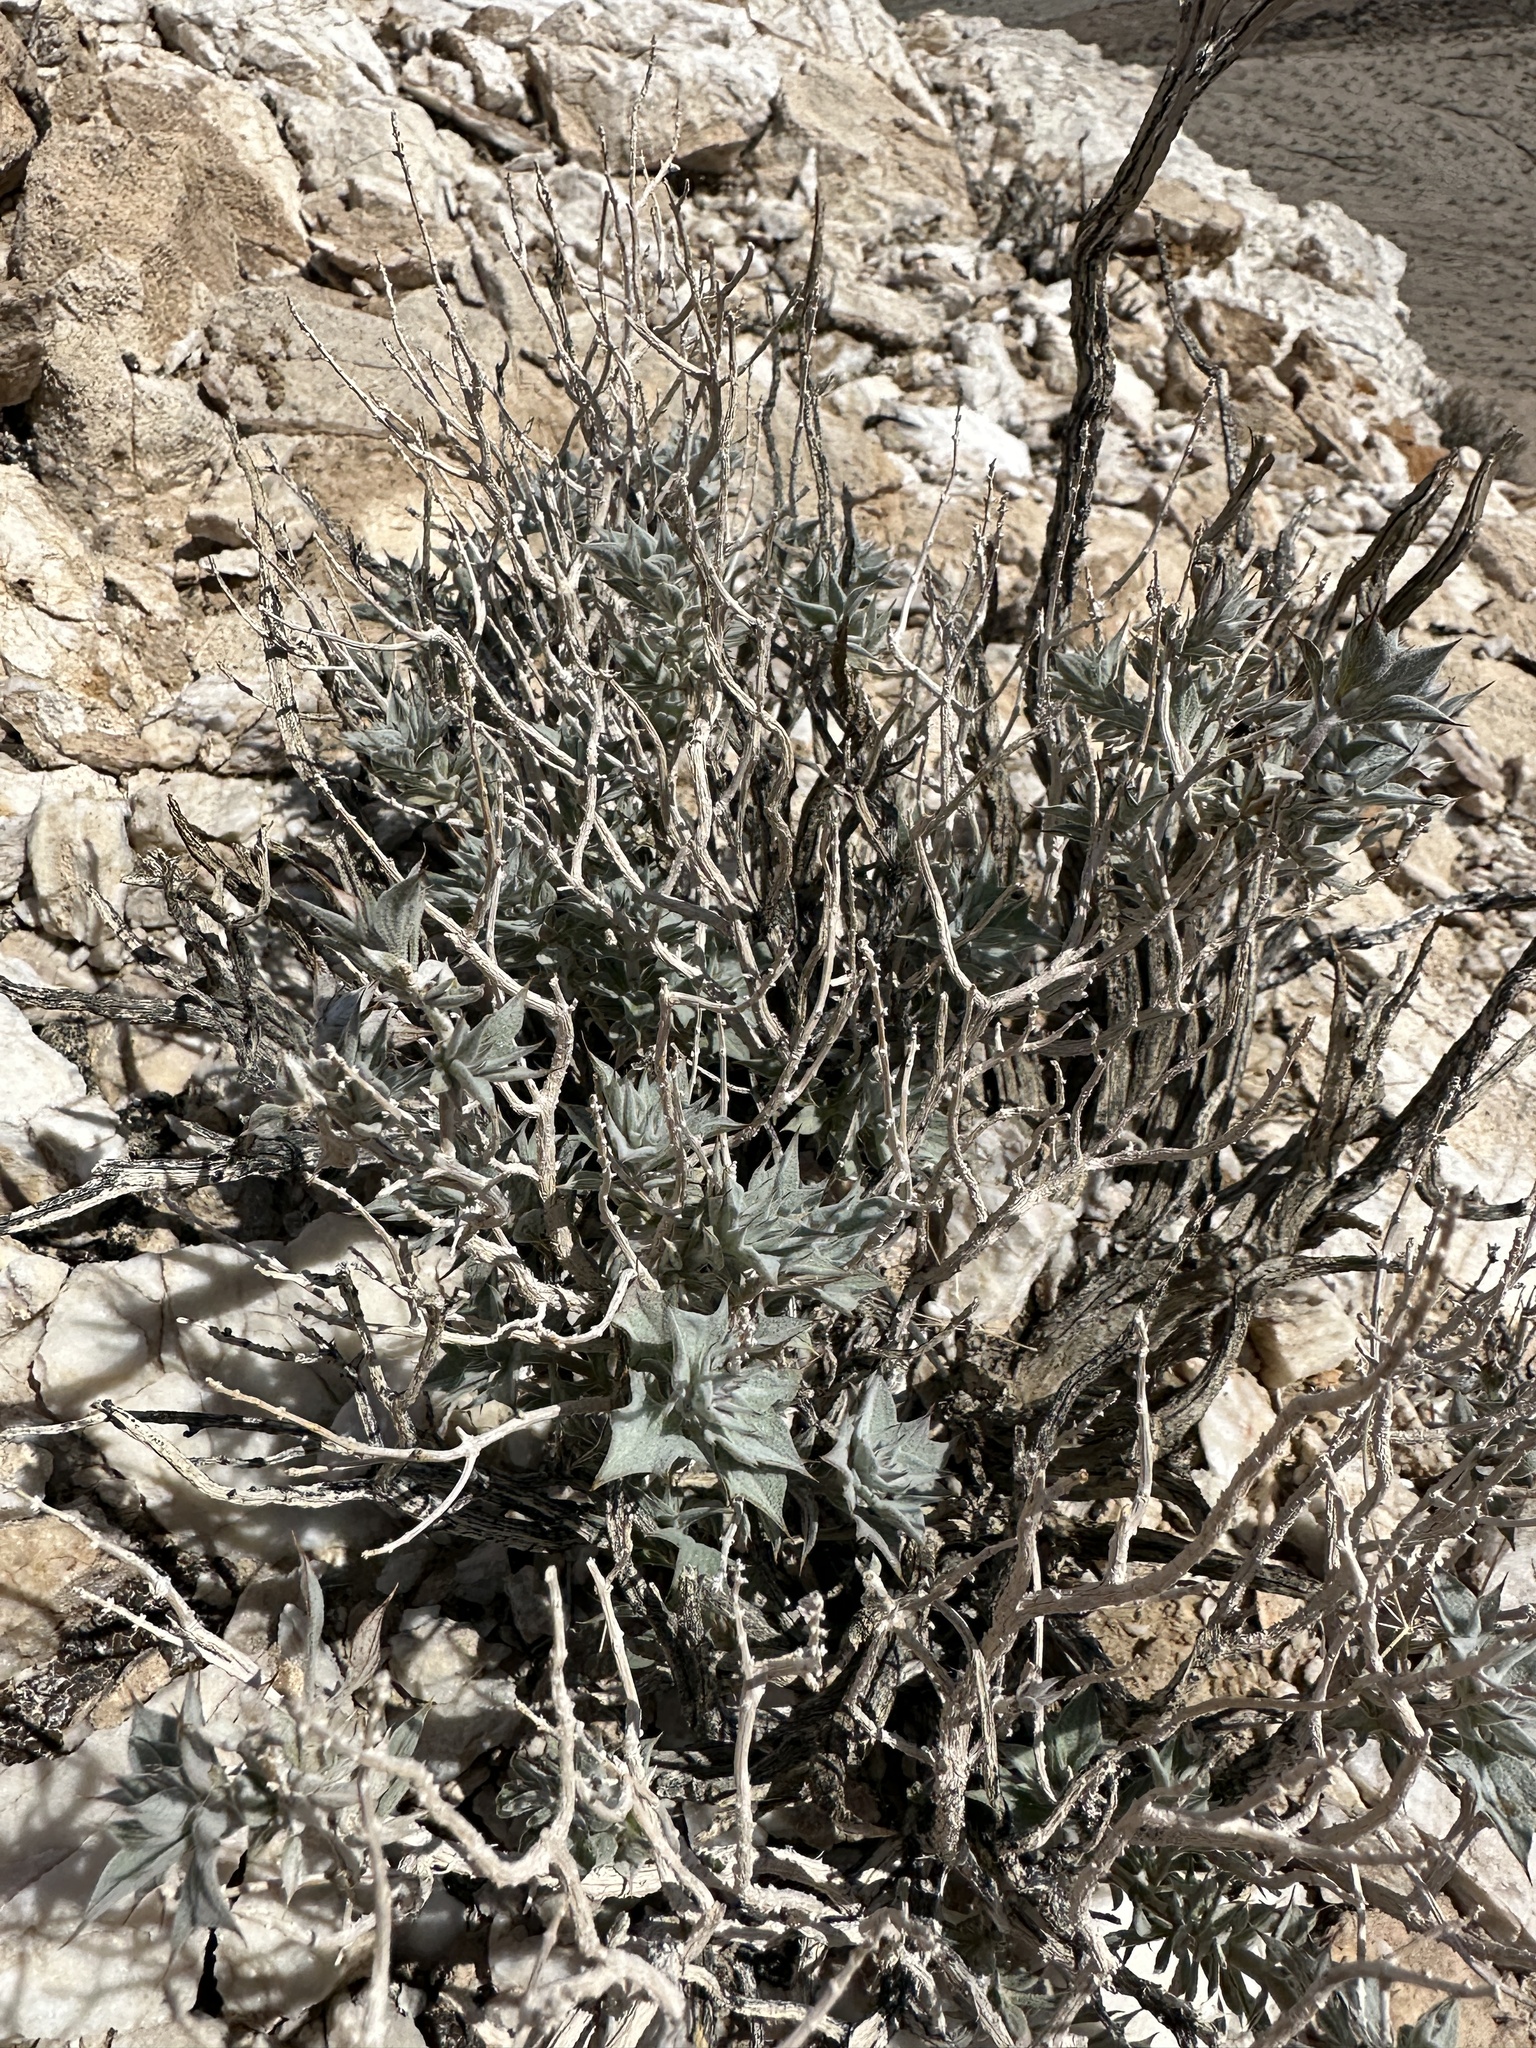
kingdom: Plantae
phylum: Tracheophyta
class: Magnoliopsida
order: Lamiales
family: Lamiaceae
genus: Salvia
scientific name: Salvia funerea
